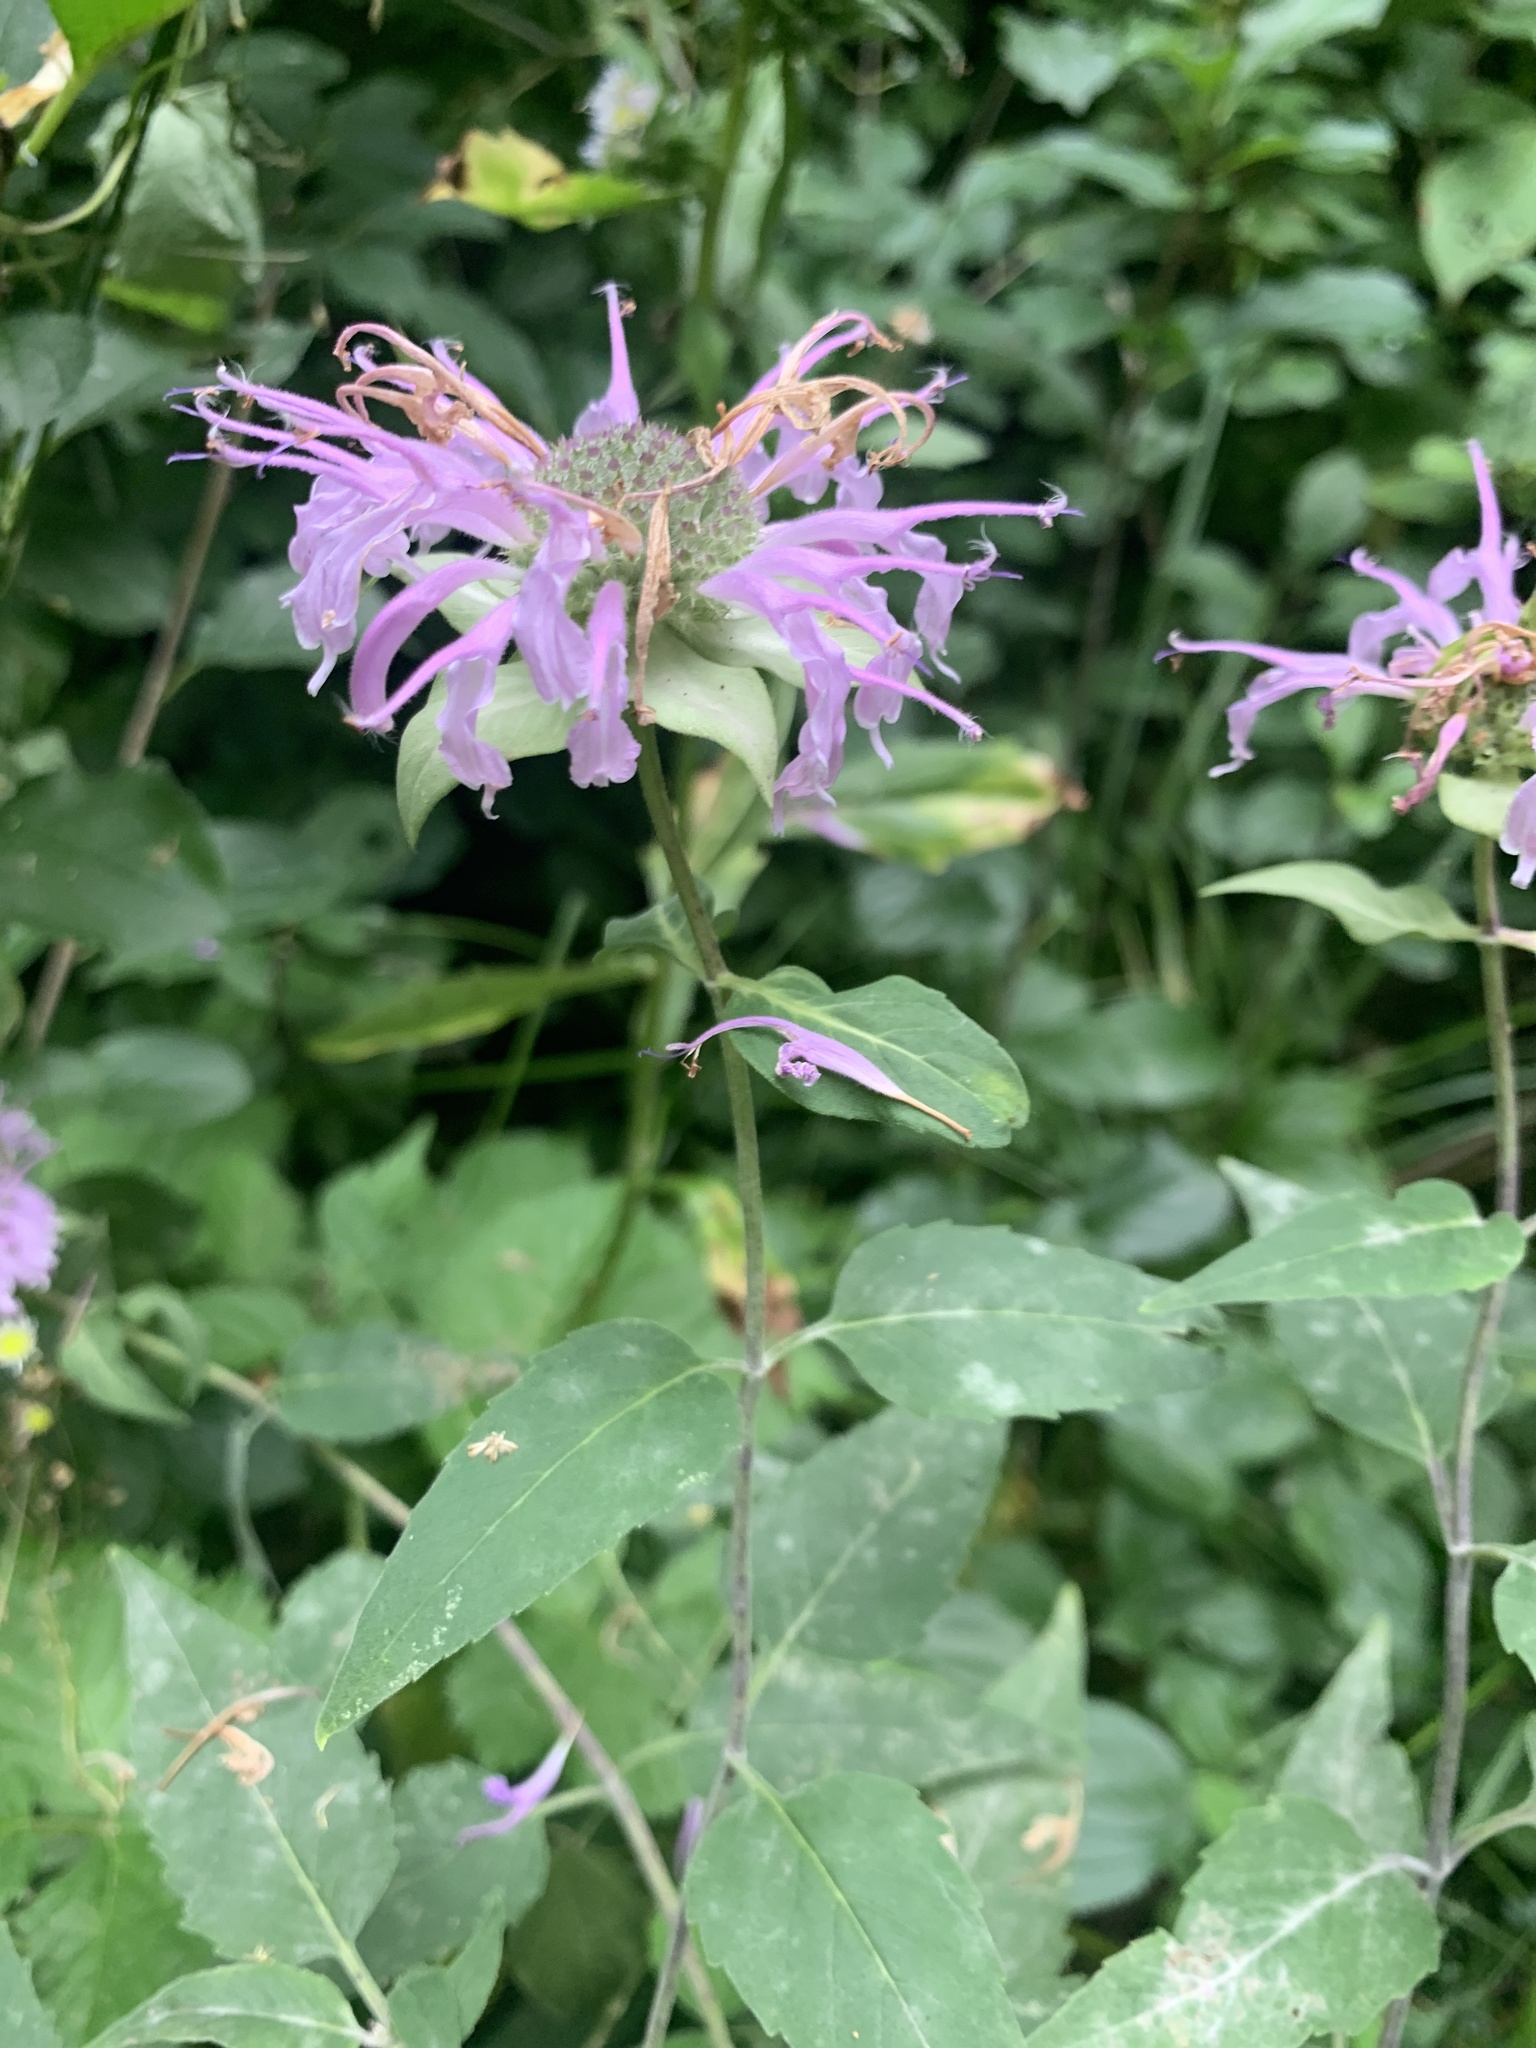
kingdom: Plantae
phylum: Tracheophyta
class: Magnoliopsida
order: Lamiales
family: Lamiaceae
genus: Monarda
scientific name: Monarda fistulosa
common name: Purple beebalm
